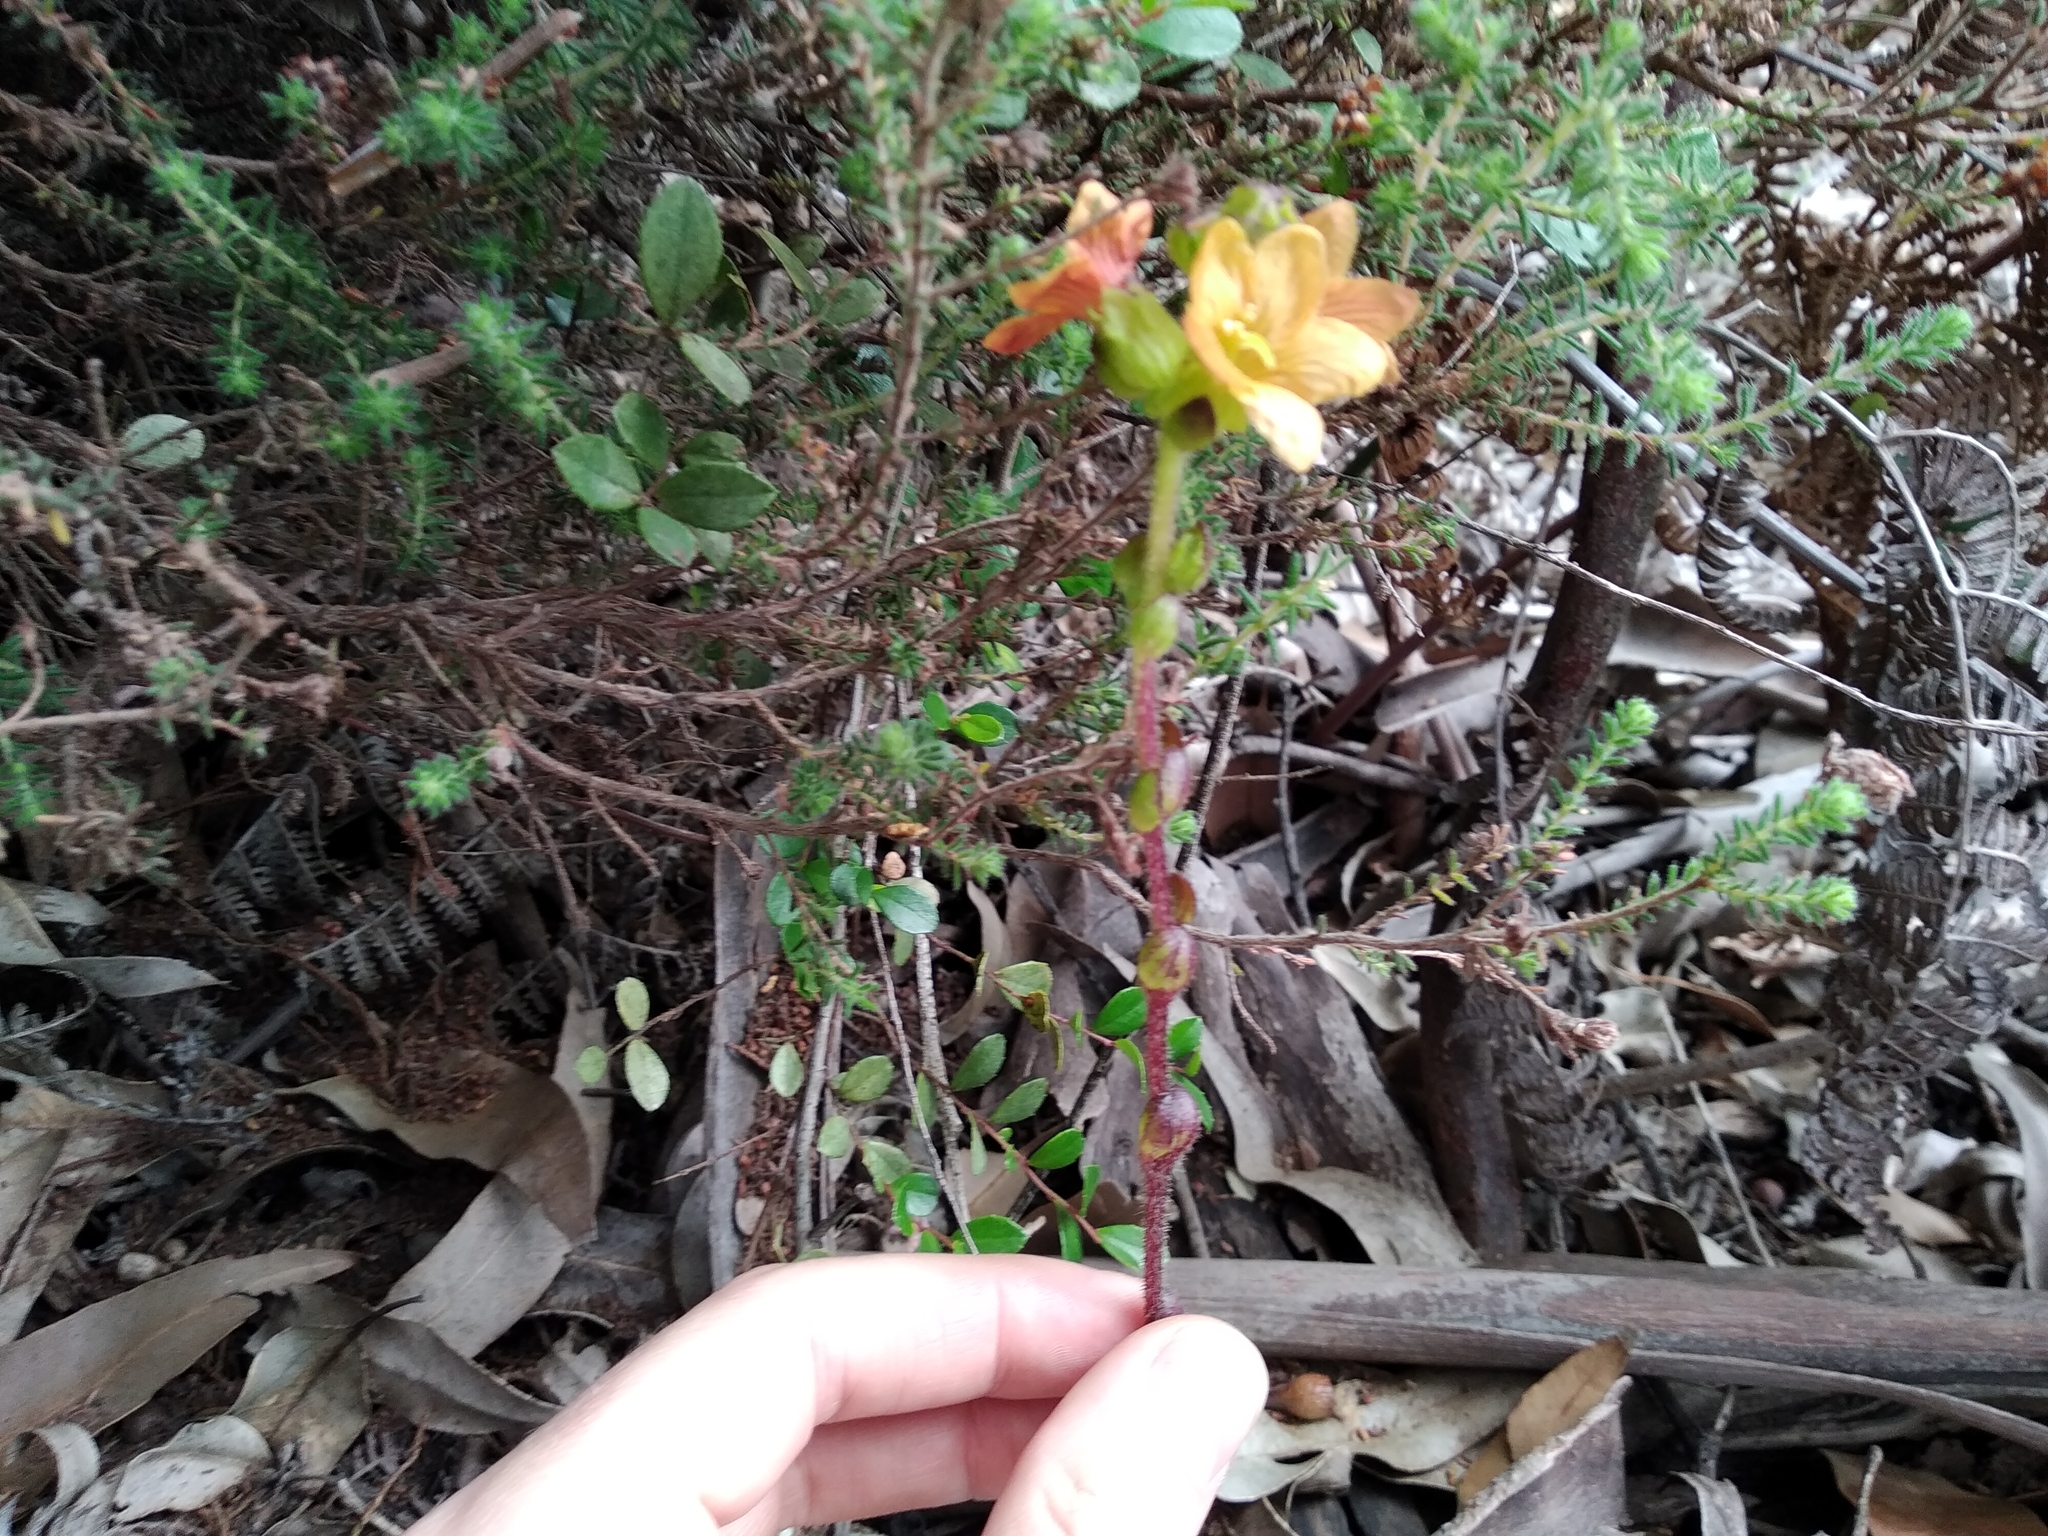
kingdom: Plantae
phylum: Tracheophyta
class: Magnoliopsida
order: Lamiales
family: Orobanchaceae
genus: Alectra
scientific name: Alectra lurida
